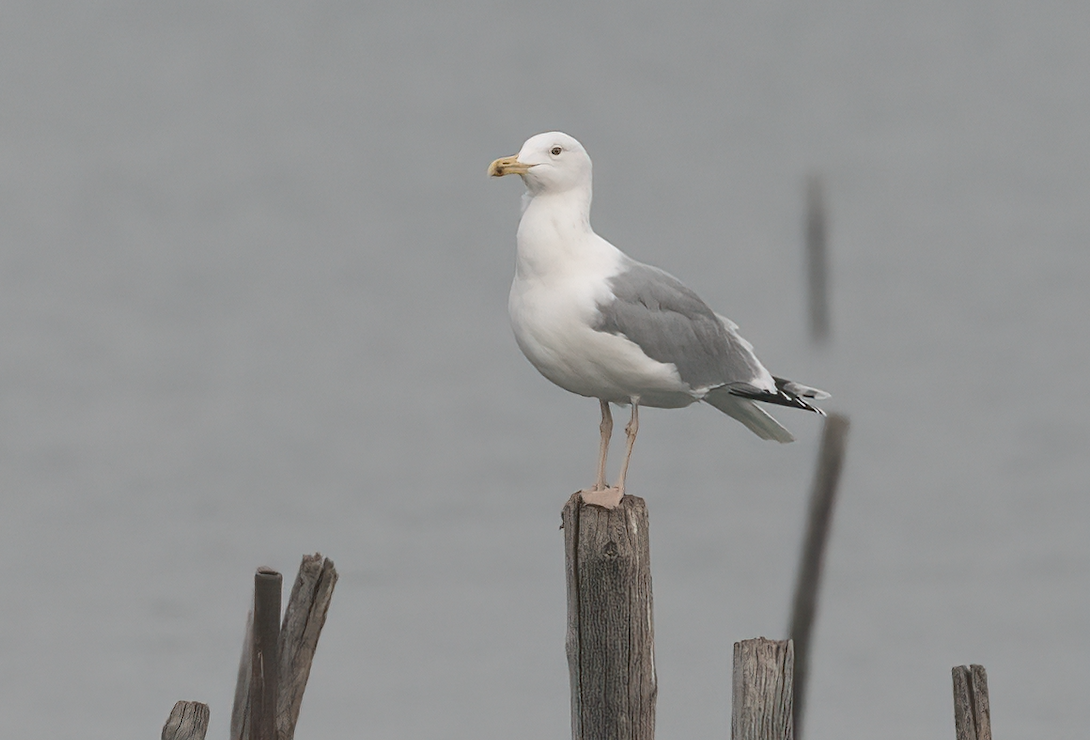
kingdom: Animalia
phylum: Chordata
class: Aves
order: Charadriiformes
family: Laridae
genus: Larus
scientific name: Larus cachinnans
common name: Caspian gull
